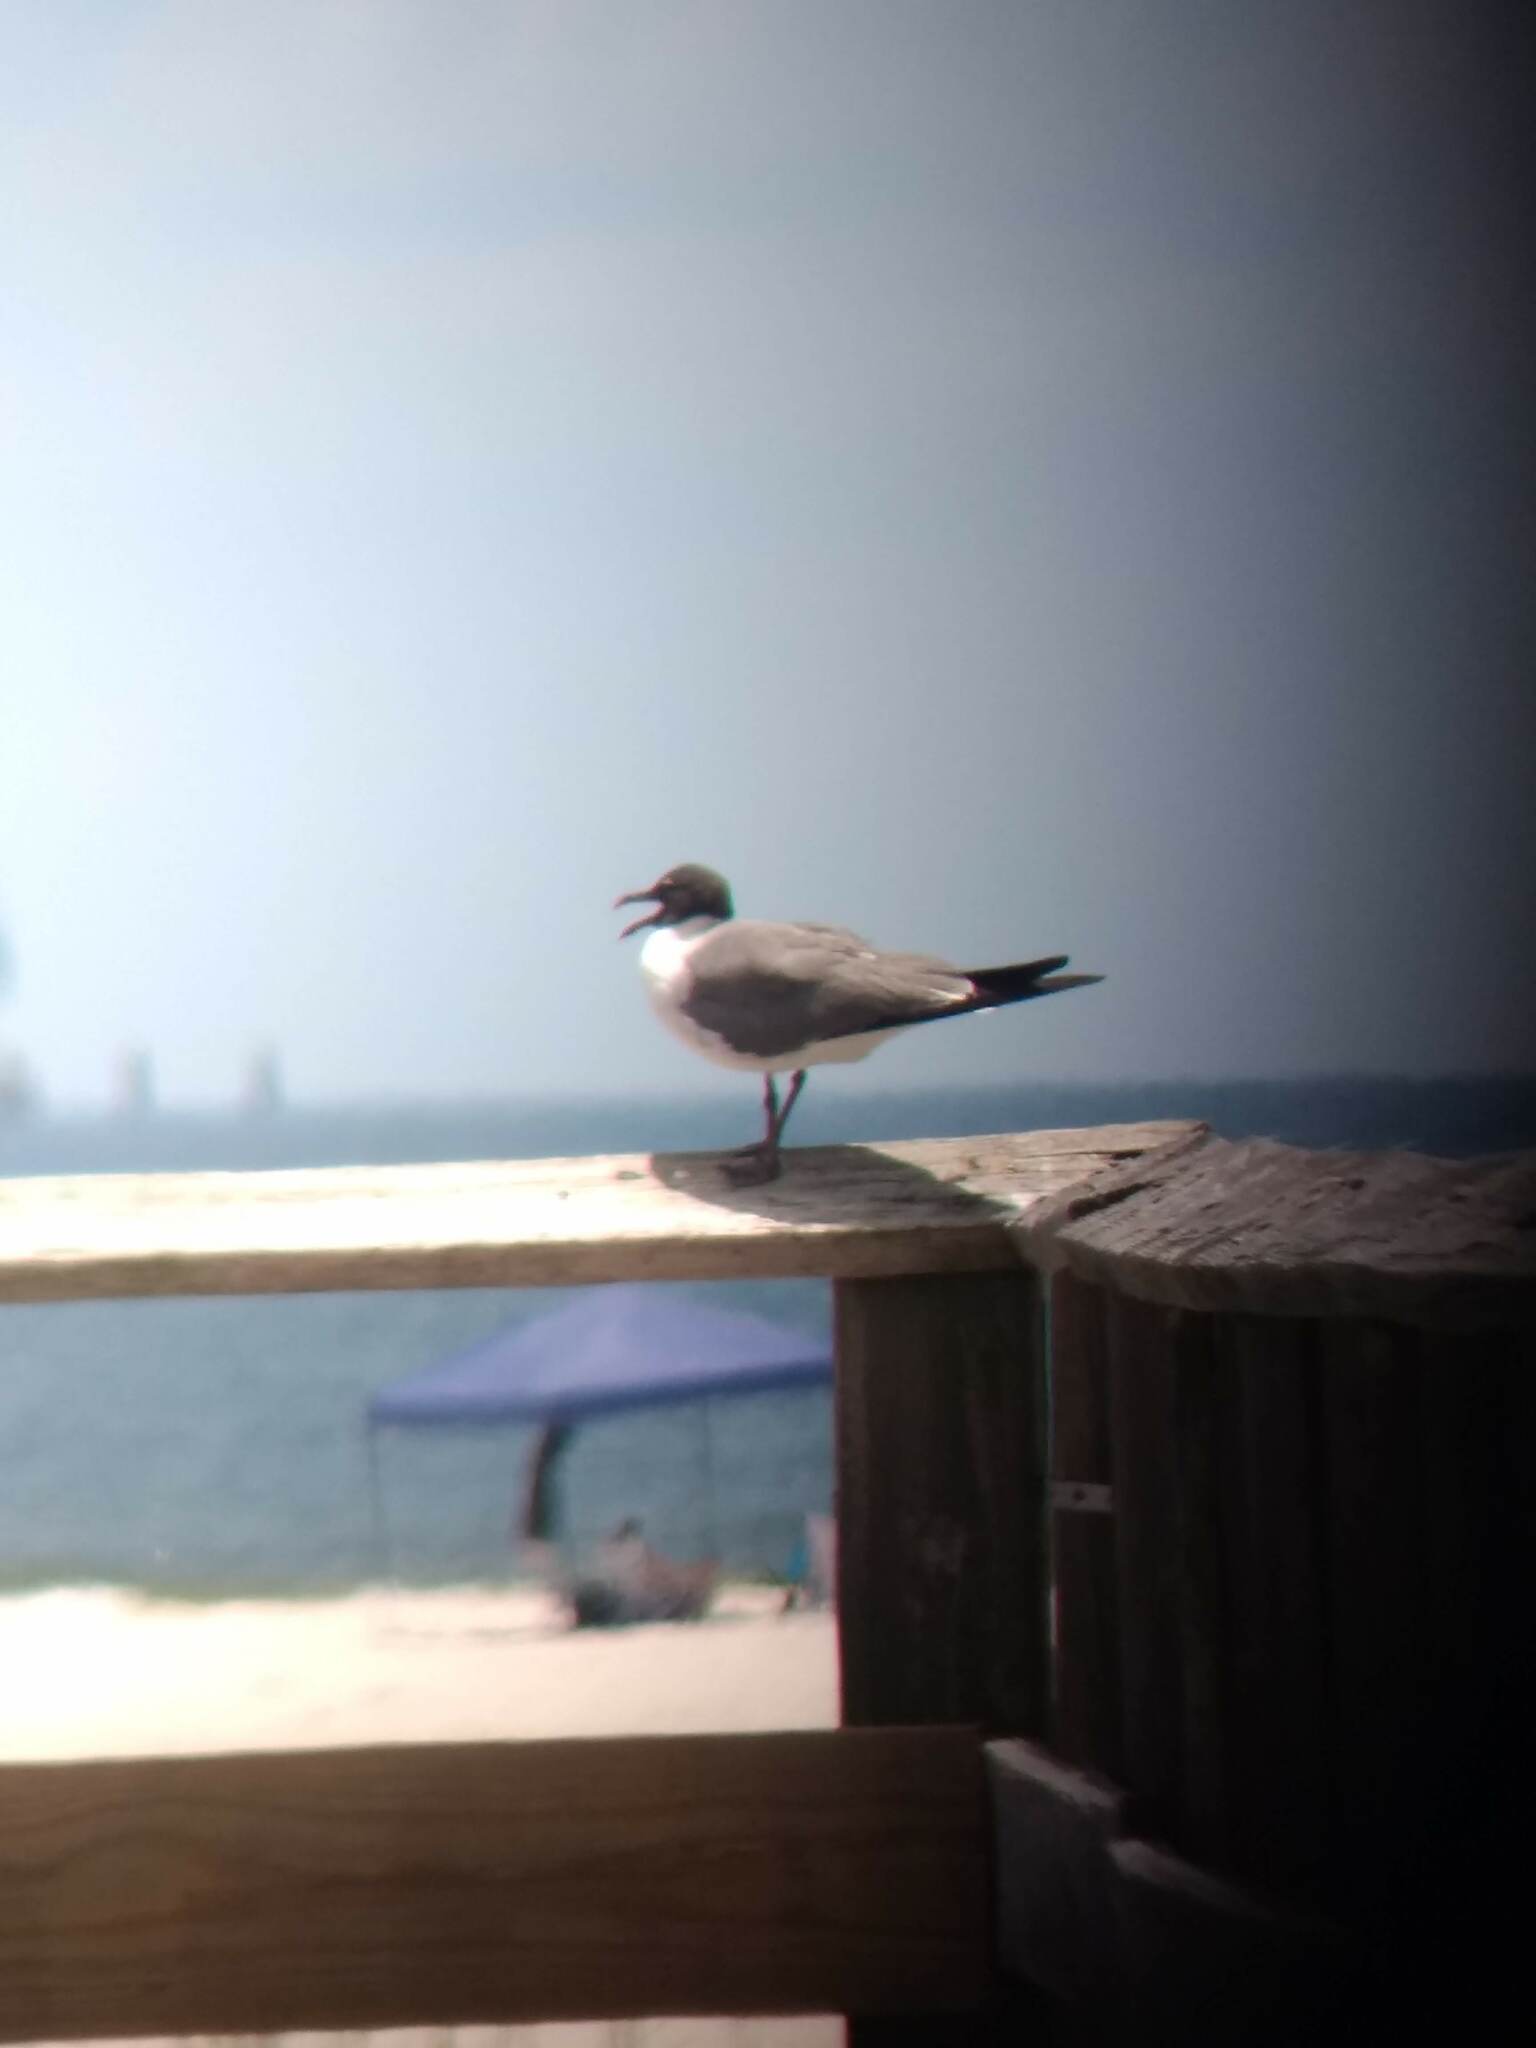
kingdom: Animalia
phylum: Chordata
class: Aves
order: Charadriiformes
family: Laridae
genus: Leucophaeus
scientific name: Leucophaeus atricilla
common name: Laughing gull
